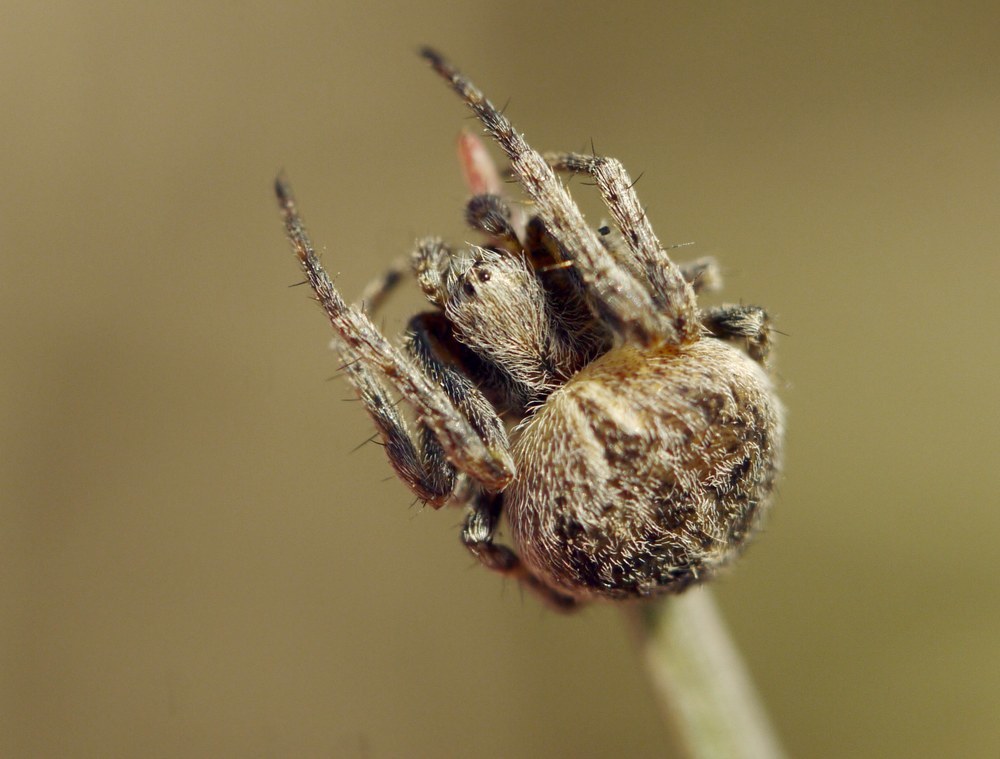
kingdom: Animalia
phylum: Arthropoda
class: Arachnida
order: Araneae
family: Araneidae
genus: Agalenatea
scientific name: Agalenatea redii
